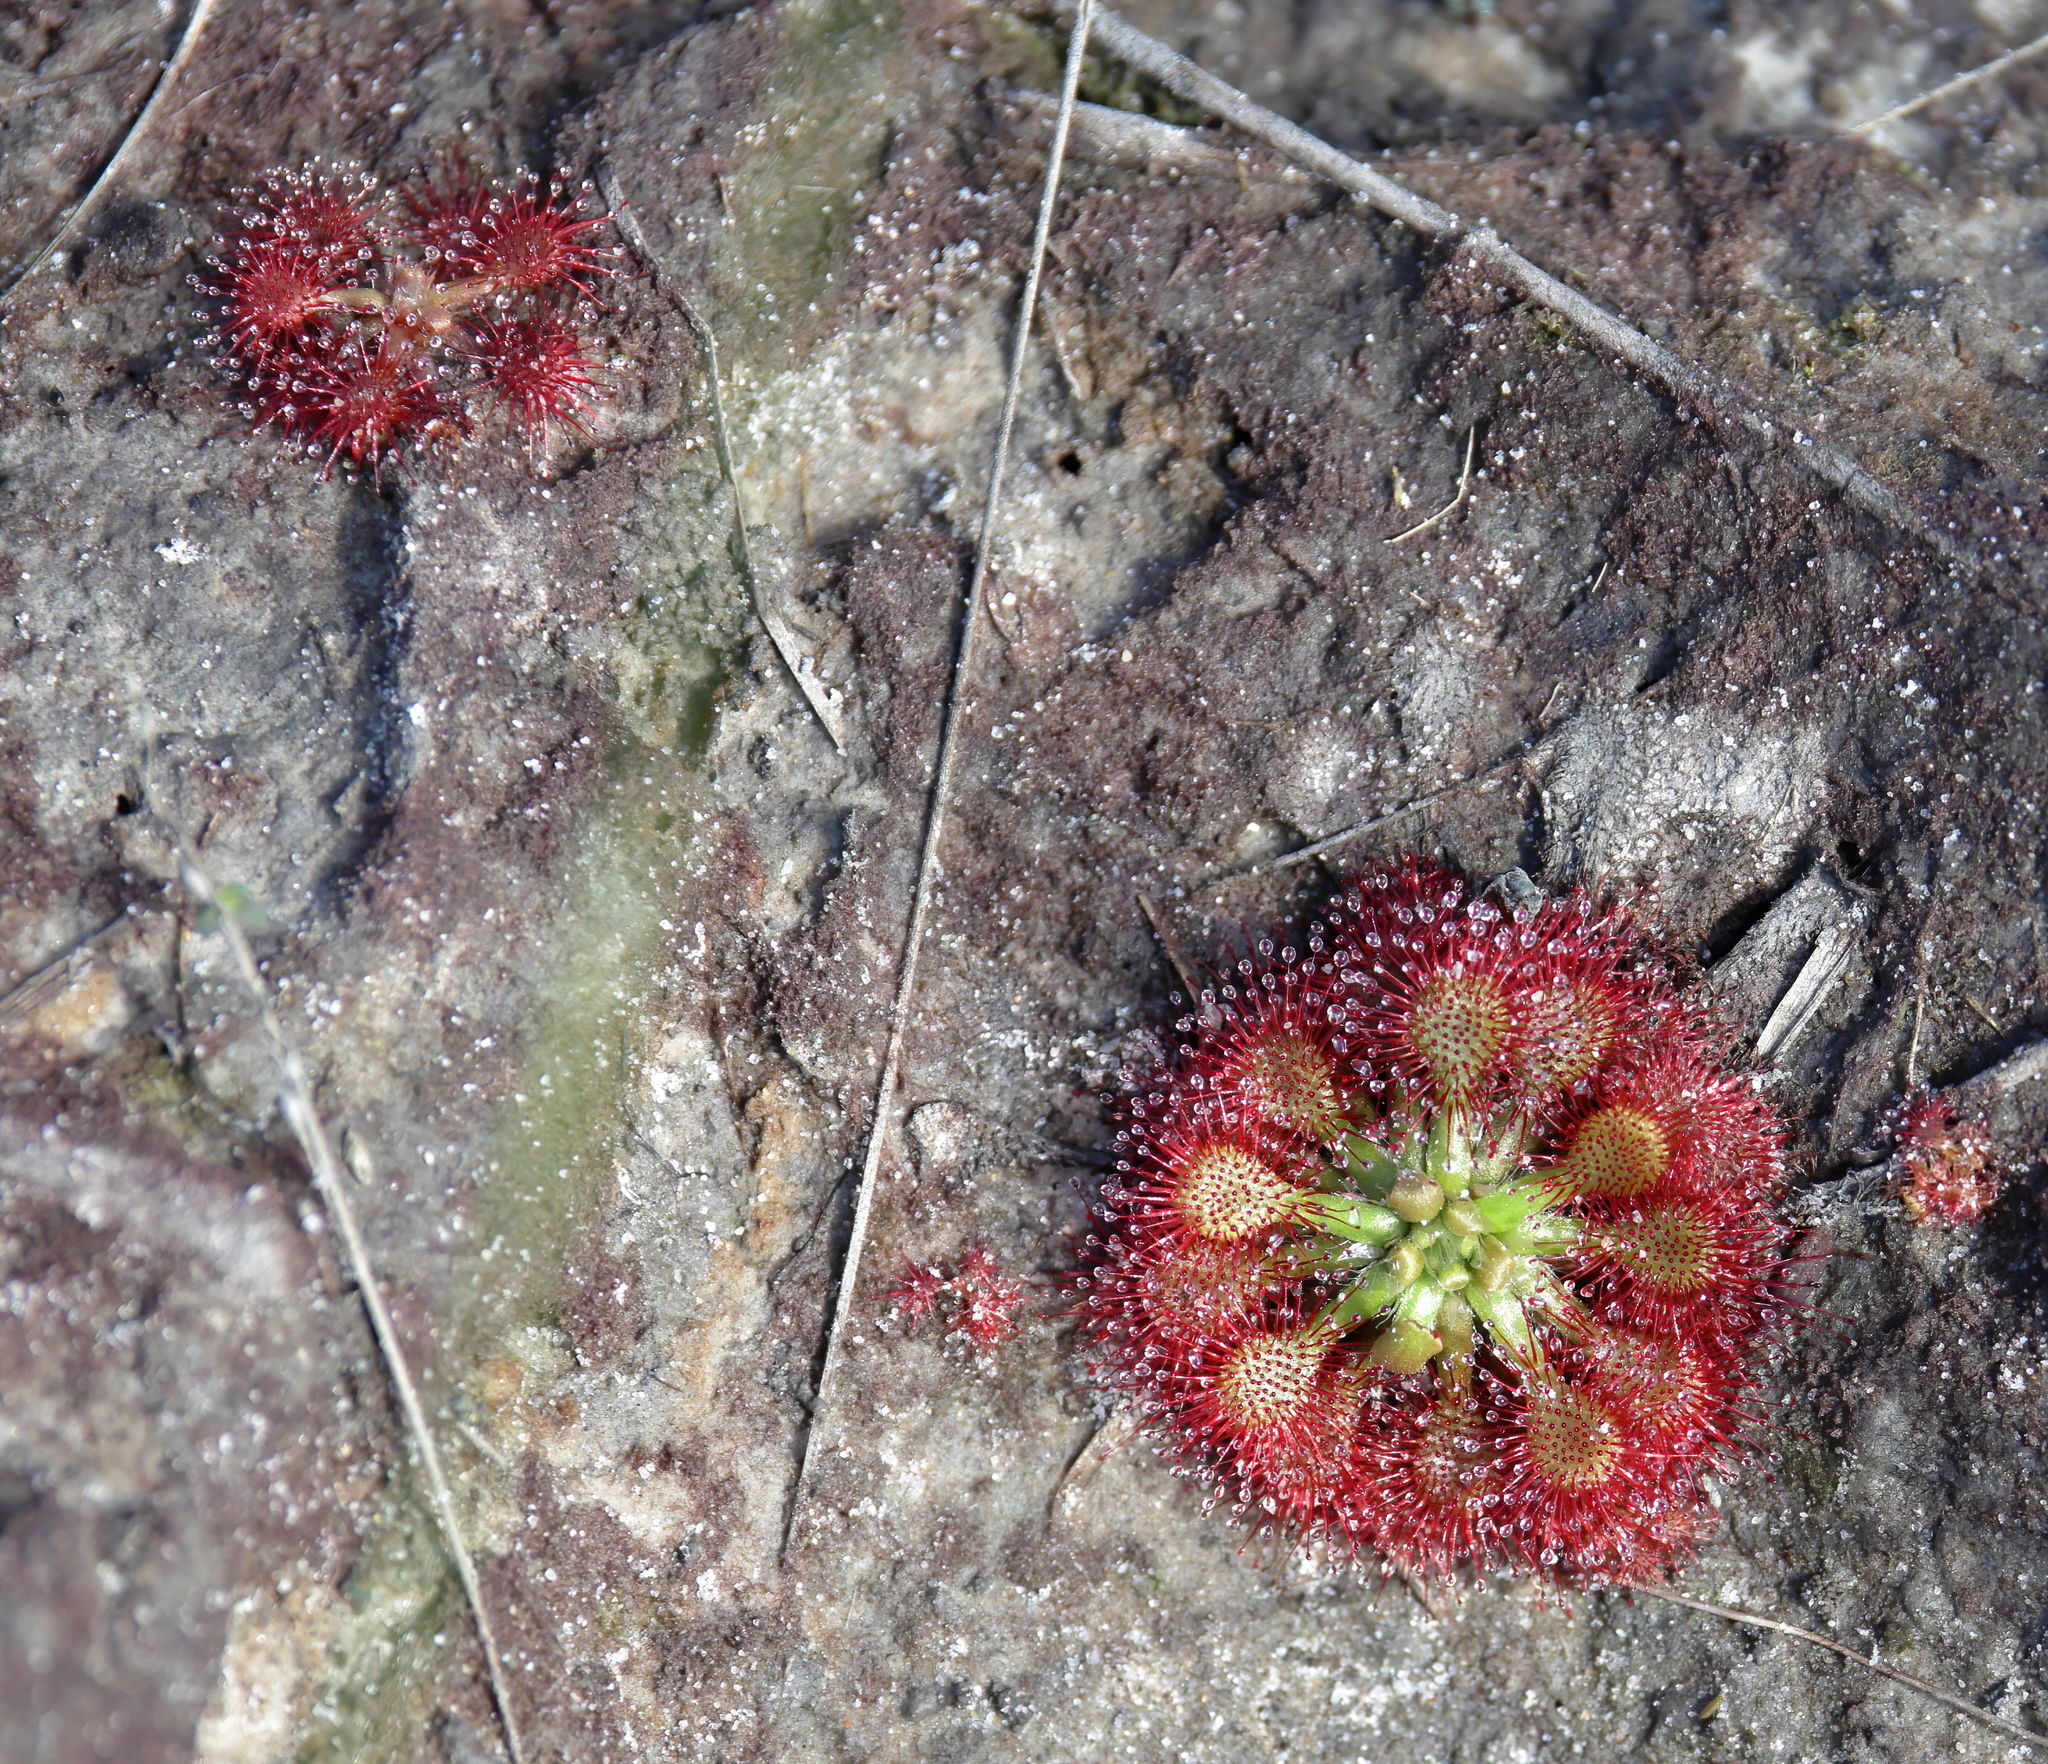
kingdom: Plantae
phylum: Tracheophyta
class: Magnoliopsida
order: Caryophyllales
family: Droseraceae
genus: Drosera
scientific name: Drosera capillaris
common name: Pink sundew
